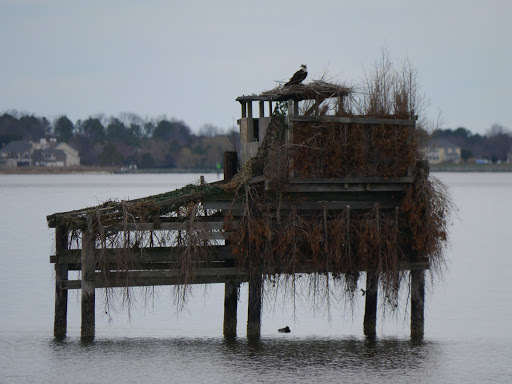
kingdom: Animalia
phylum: Chordata
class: Aves
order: Accipitriformes
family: Pandionidae
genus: Pandion
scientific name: Pandion haliaetus
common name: Osprey
